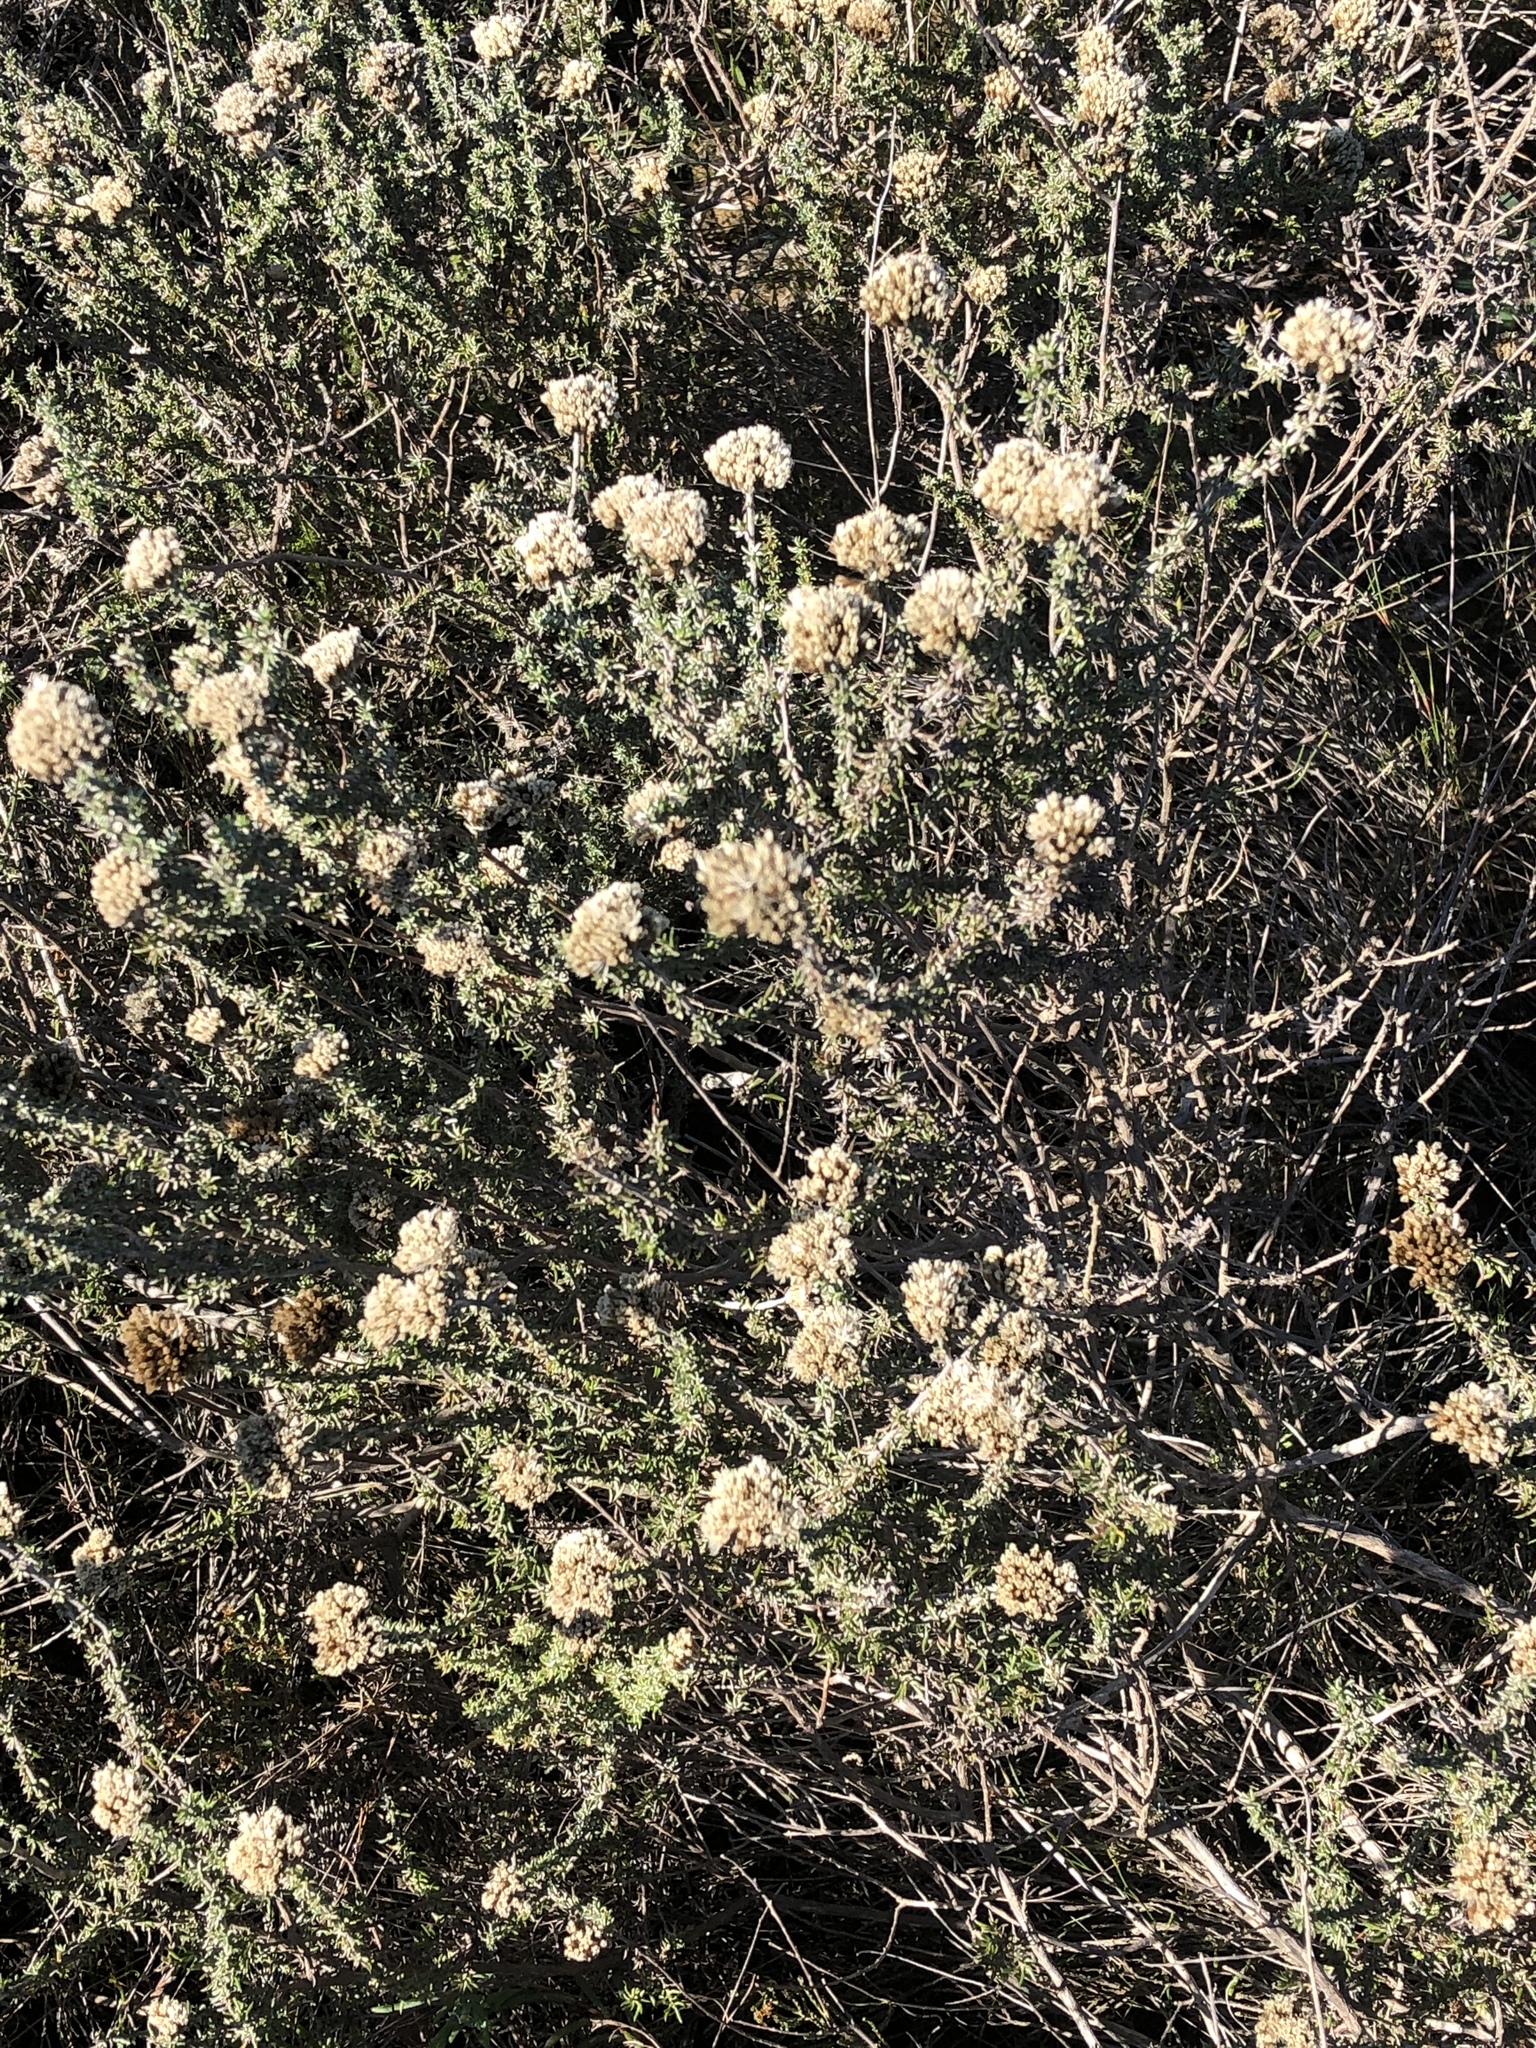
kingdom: Plantae
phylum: Tracheophyta
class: Magnoliopsida
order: Asterales
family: Asteraceae
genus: Metalasia
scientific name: Metalasia densa
